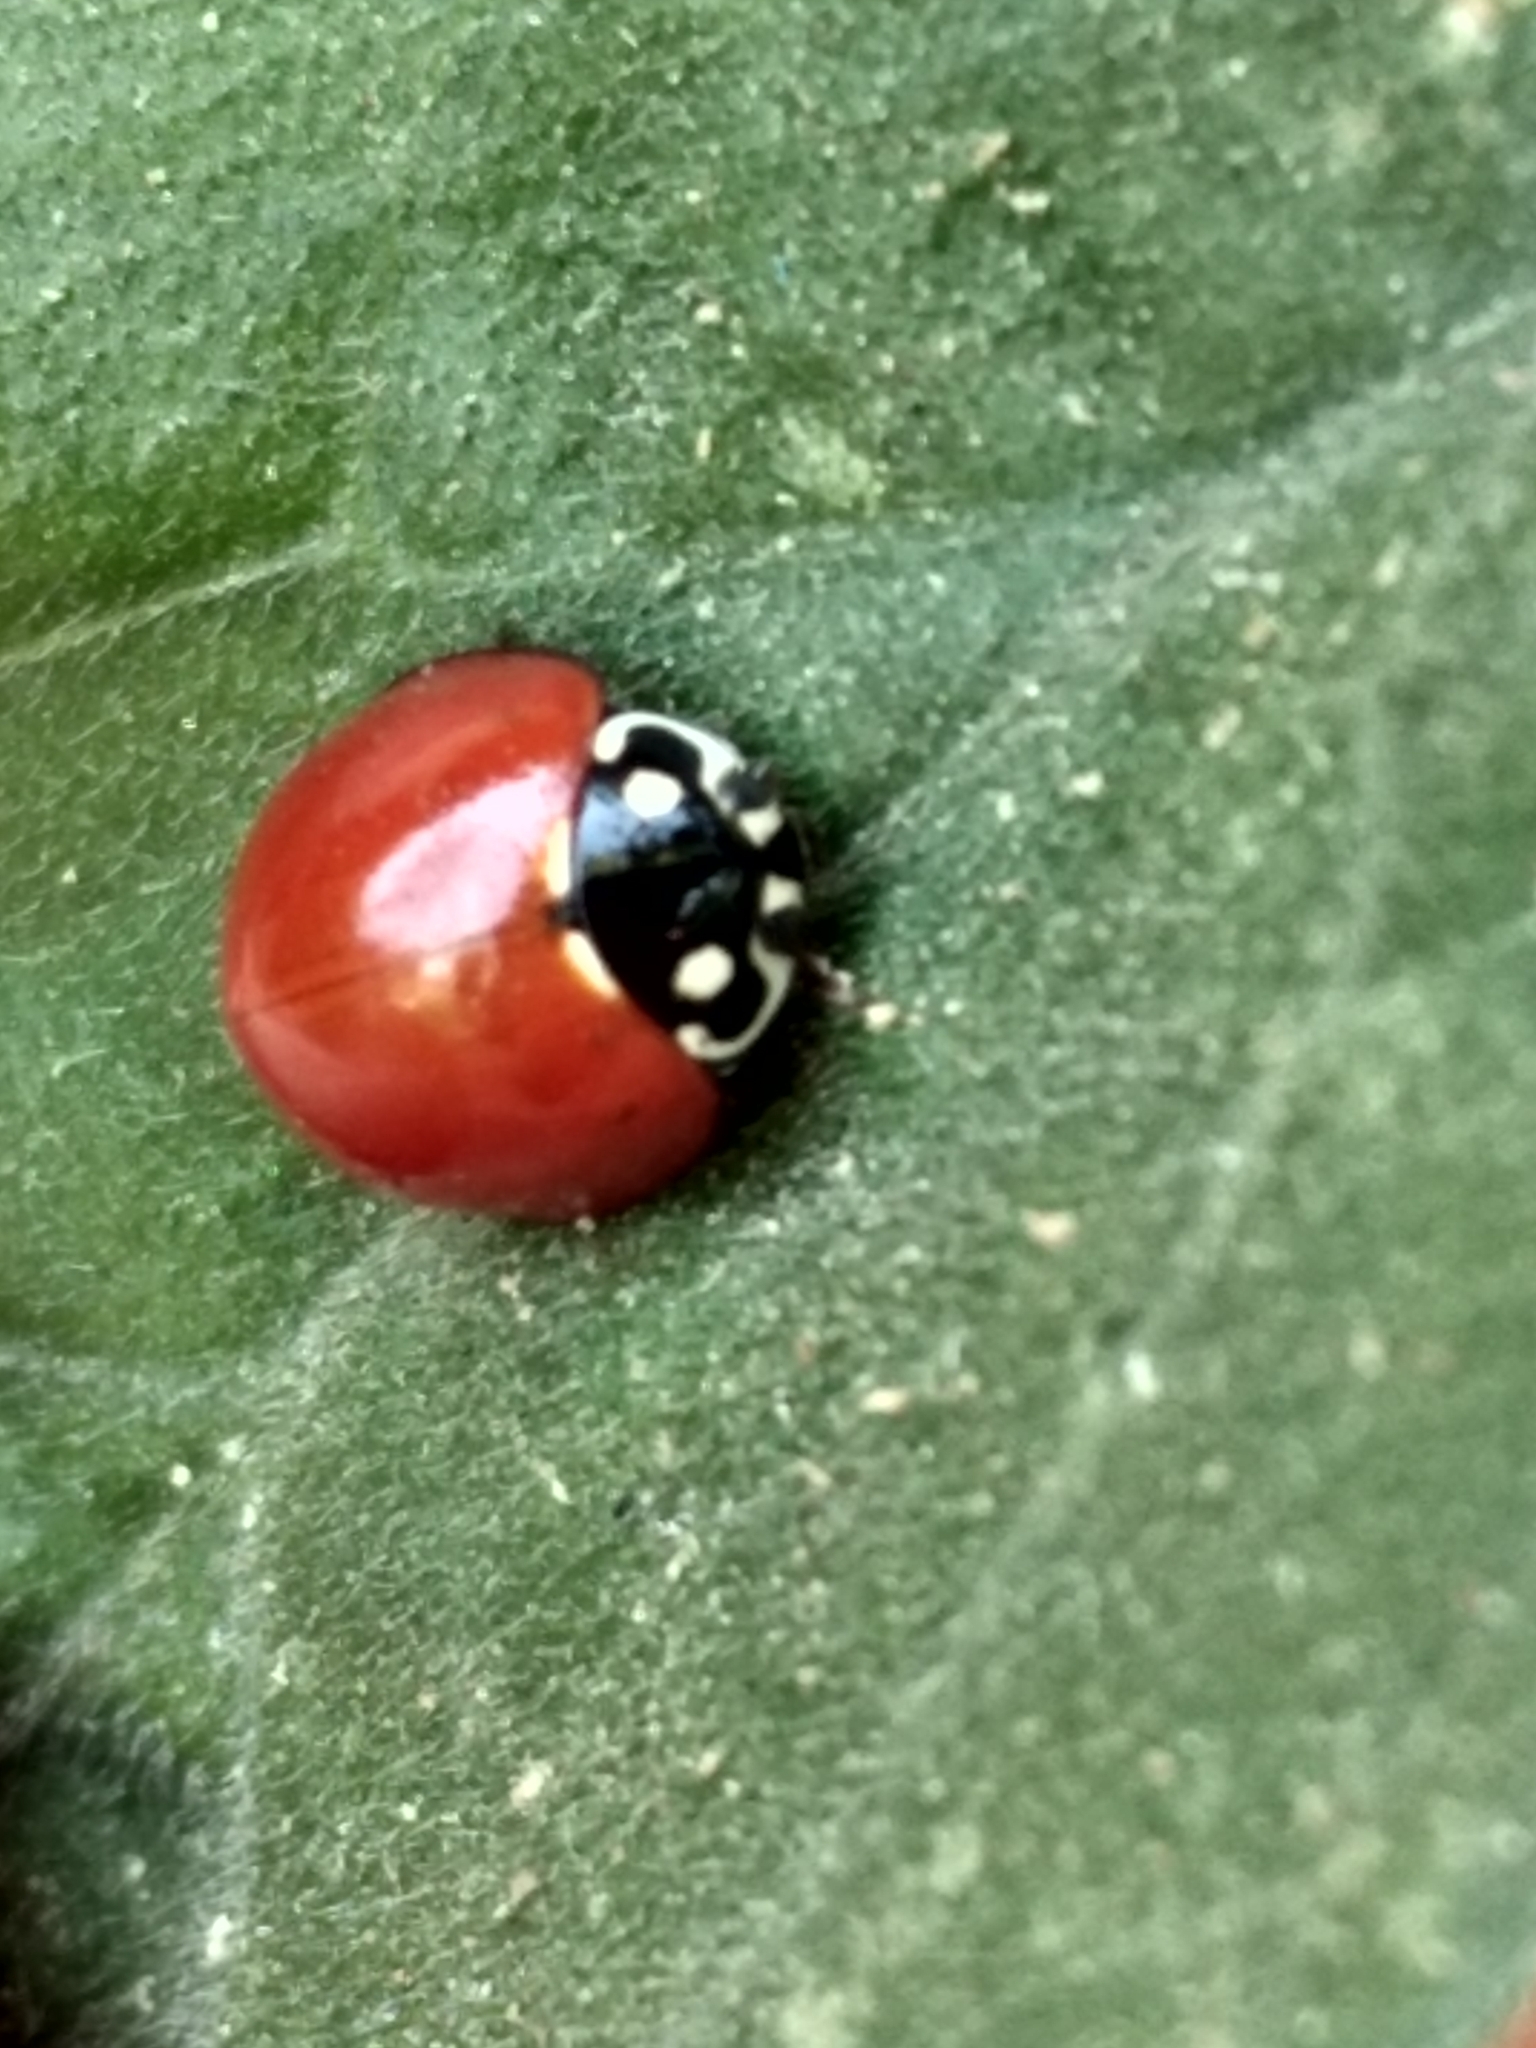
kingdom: Animalia
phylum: Arthropoda
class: Insecta
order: Coleoptera
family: Coccinellidae
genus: Cycloneda
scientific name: Cycloneda sanguinea
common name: Ladybird beetle
